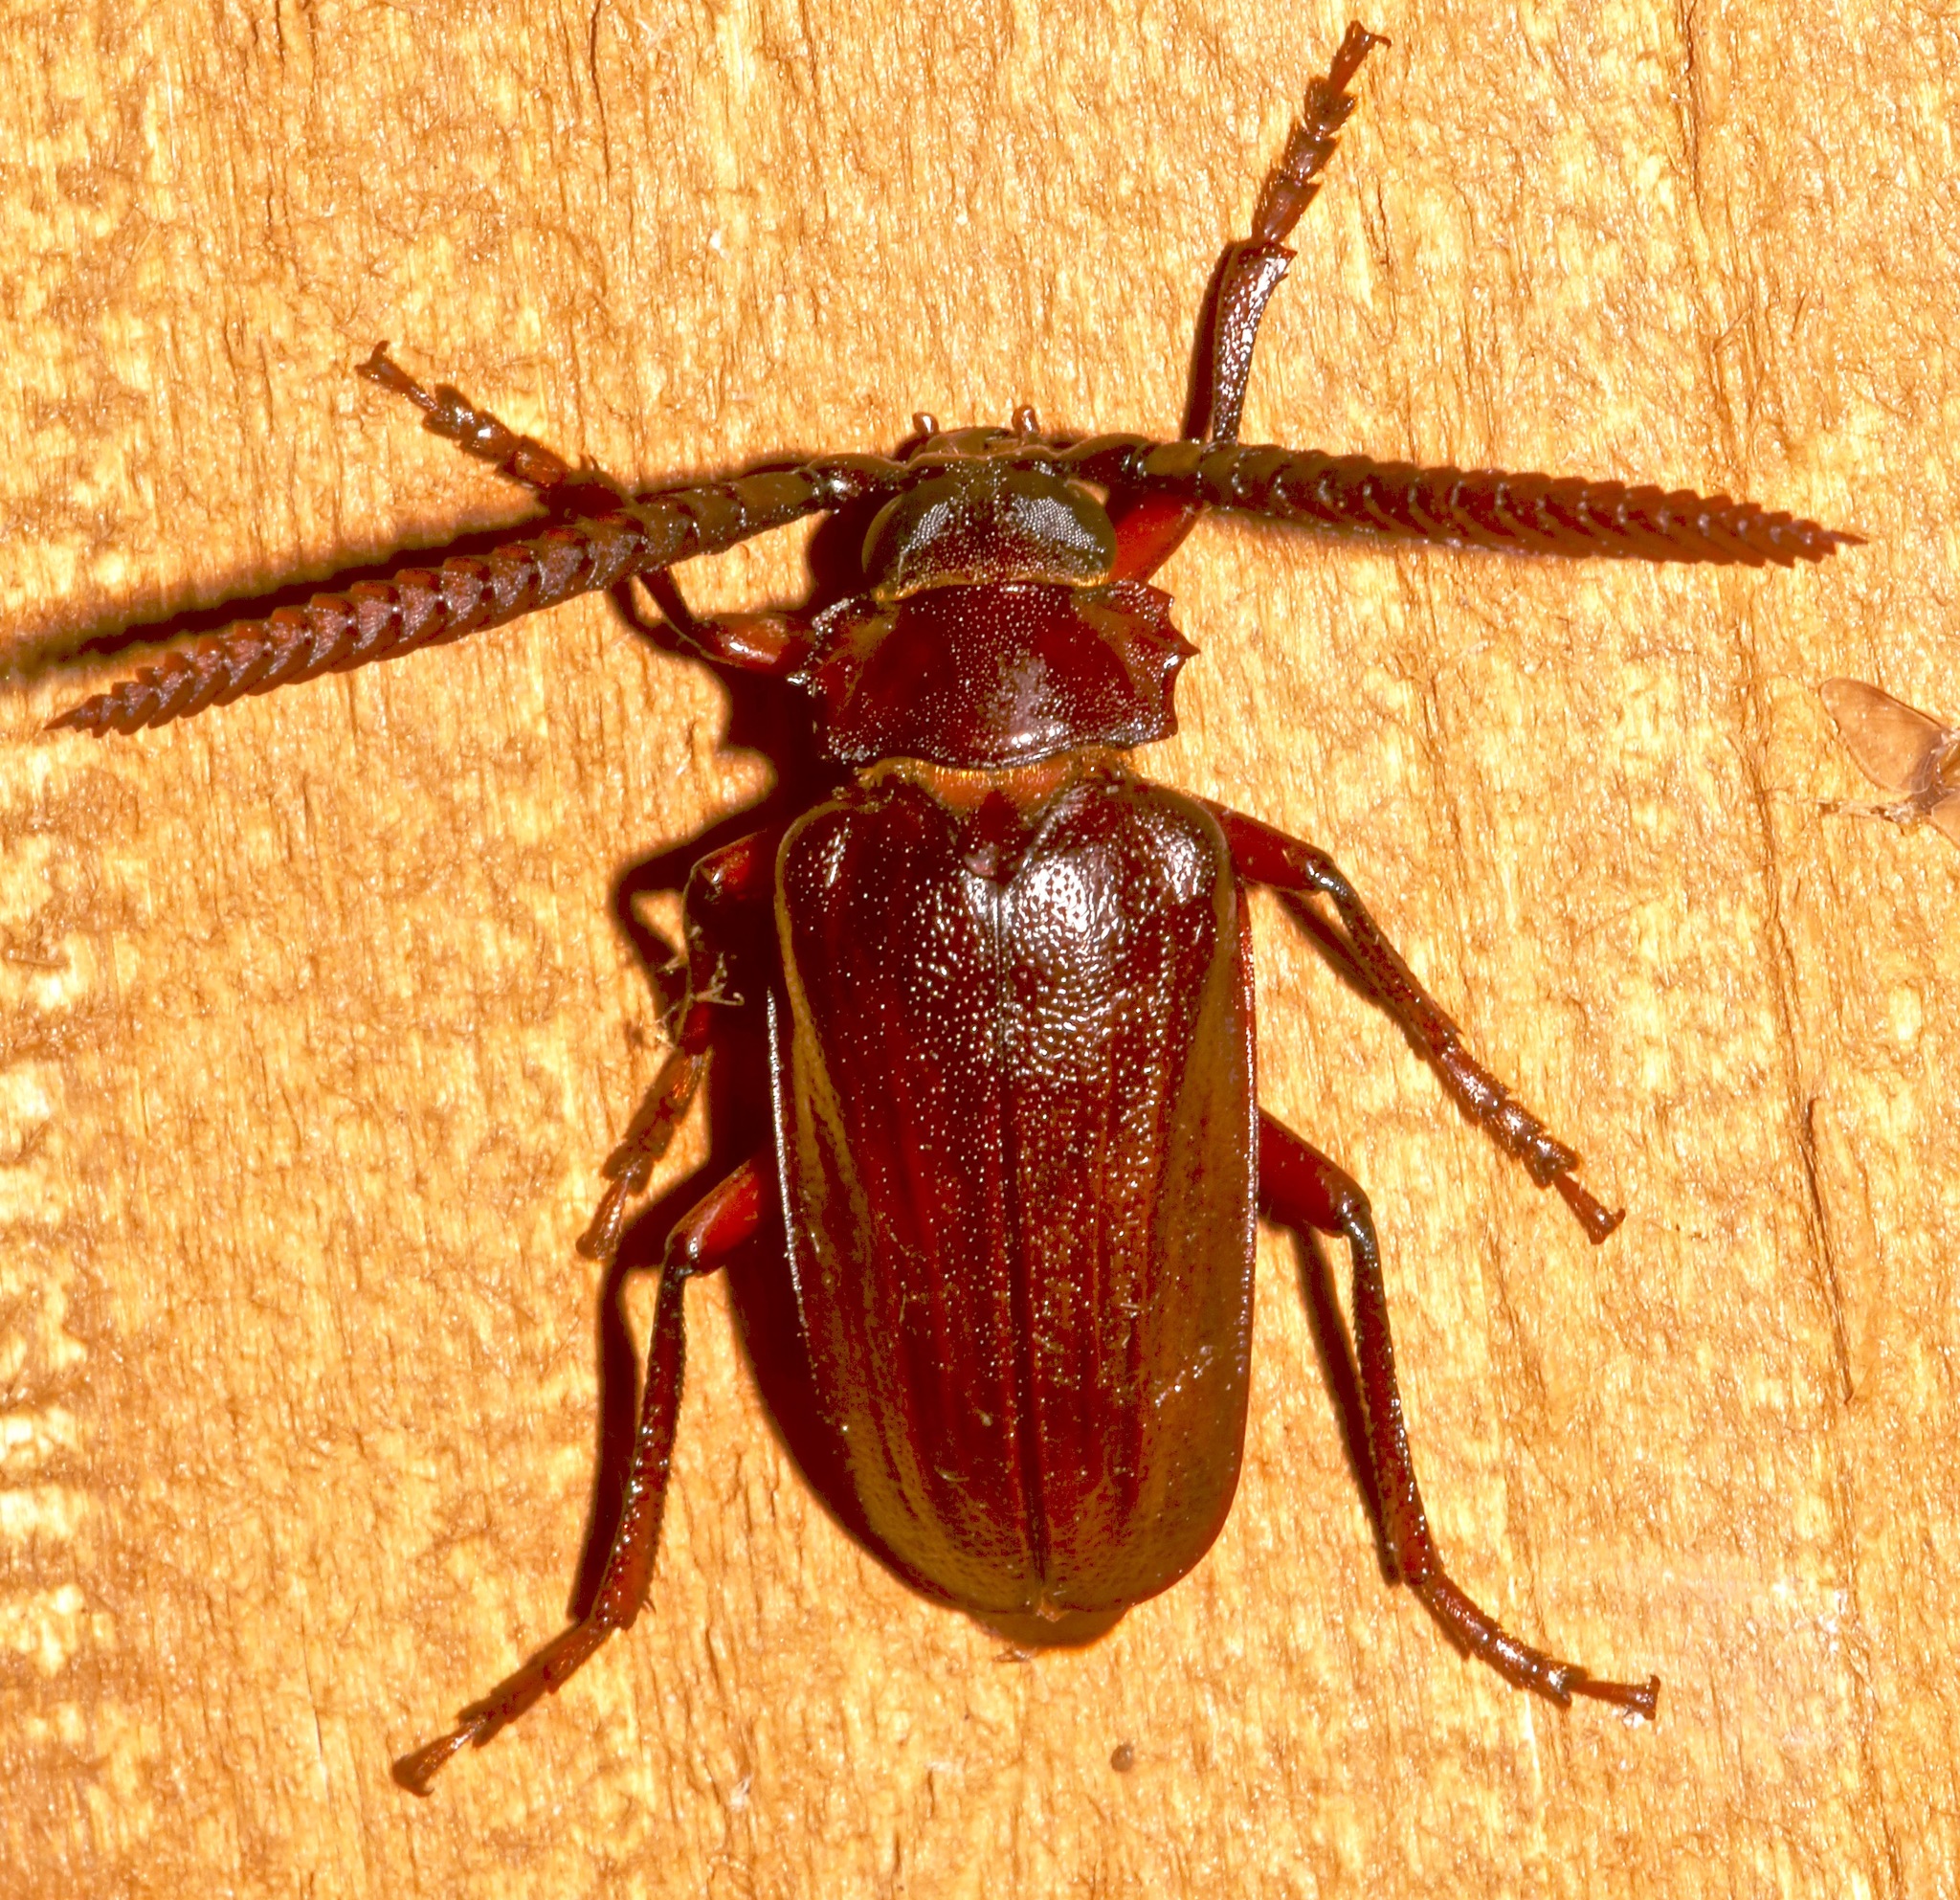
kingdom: Animalia
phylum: Arthropoda
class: Insecta
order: Coleoptera
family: Cerambycidae
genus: Prionus
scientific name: Prionus imbricornis
